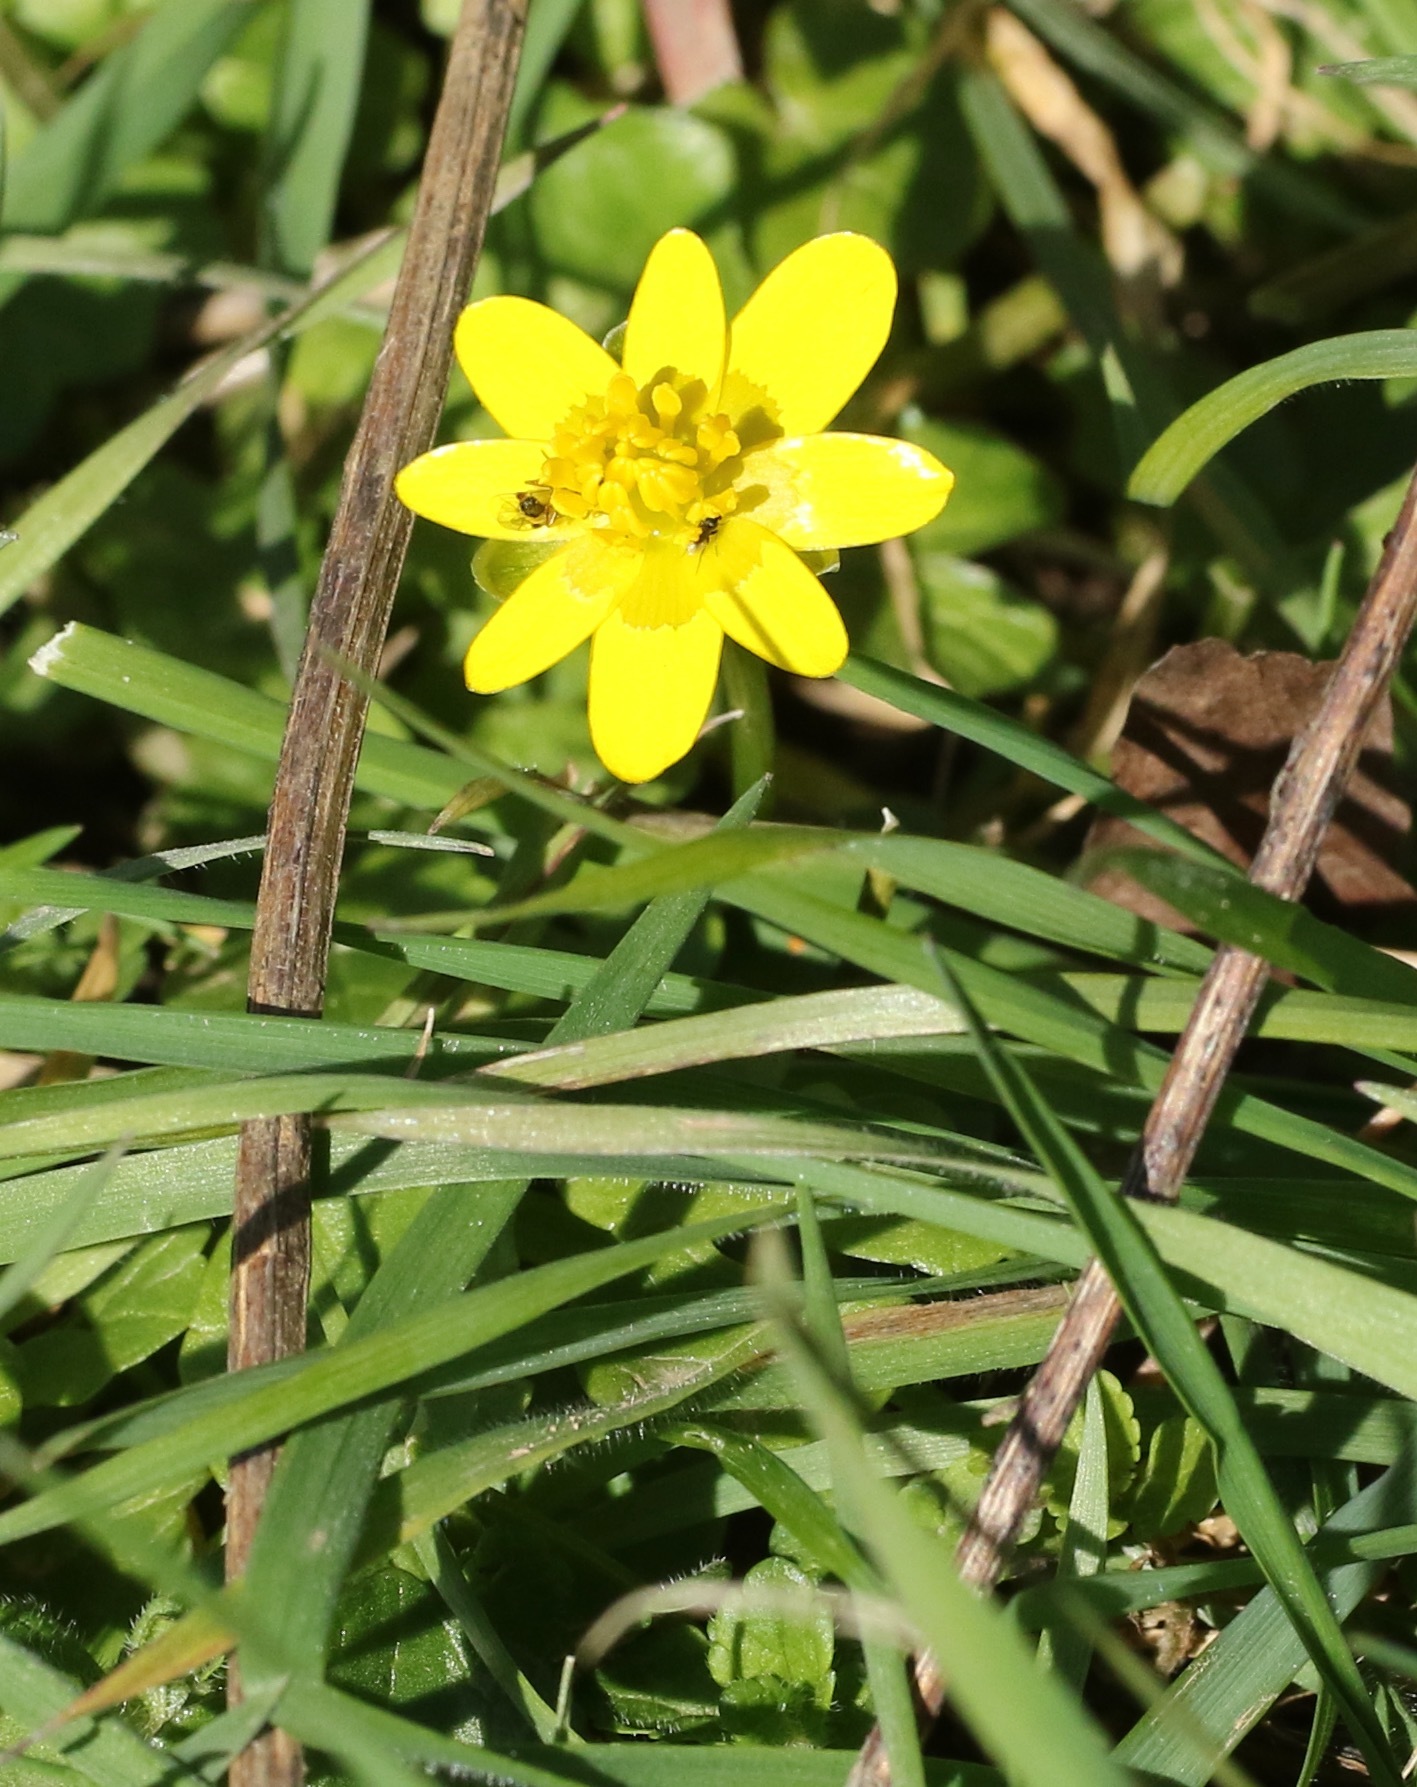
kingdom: Plantae
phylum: Tracheophyta
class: Magnoliopsida
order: Ranunculales
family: Ranunculaceae
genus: Ficaria
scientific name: Ficaria verna
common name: Lesser celandine
